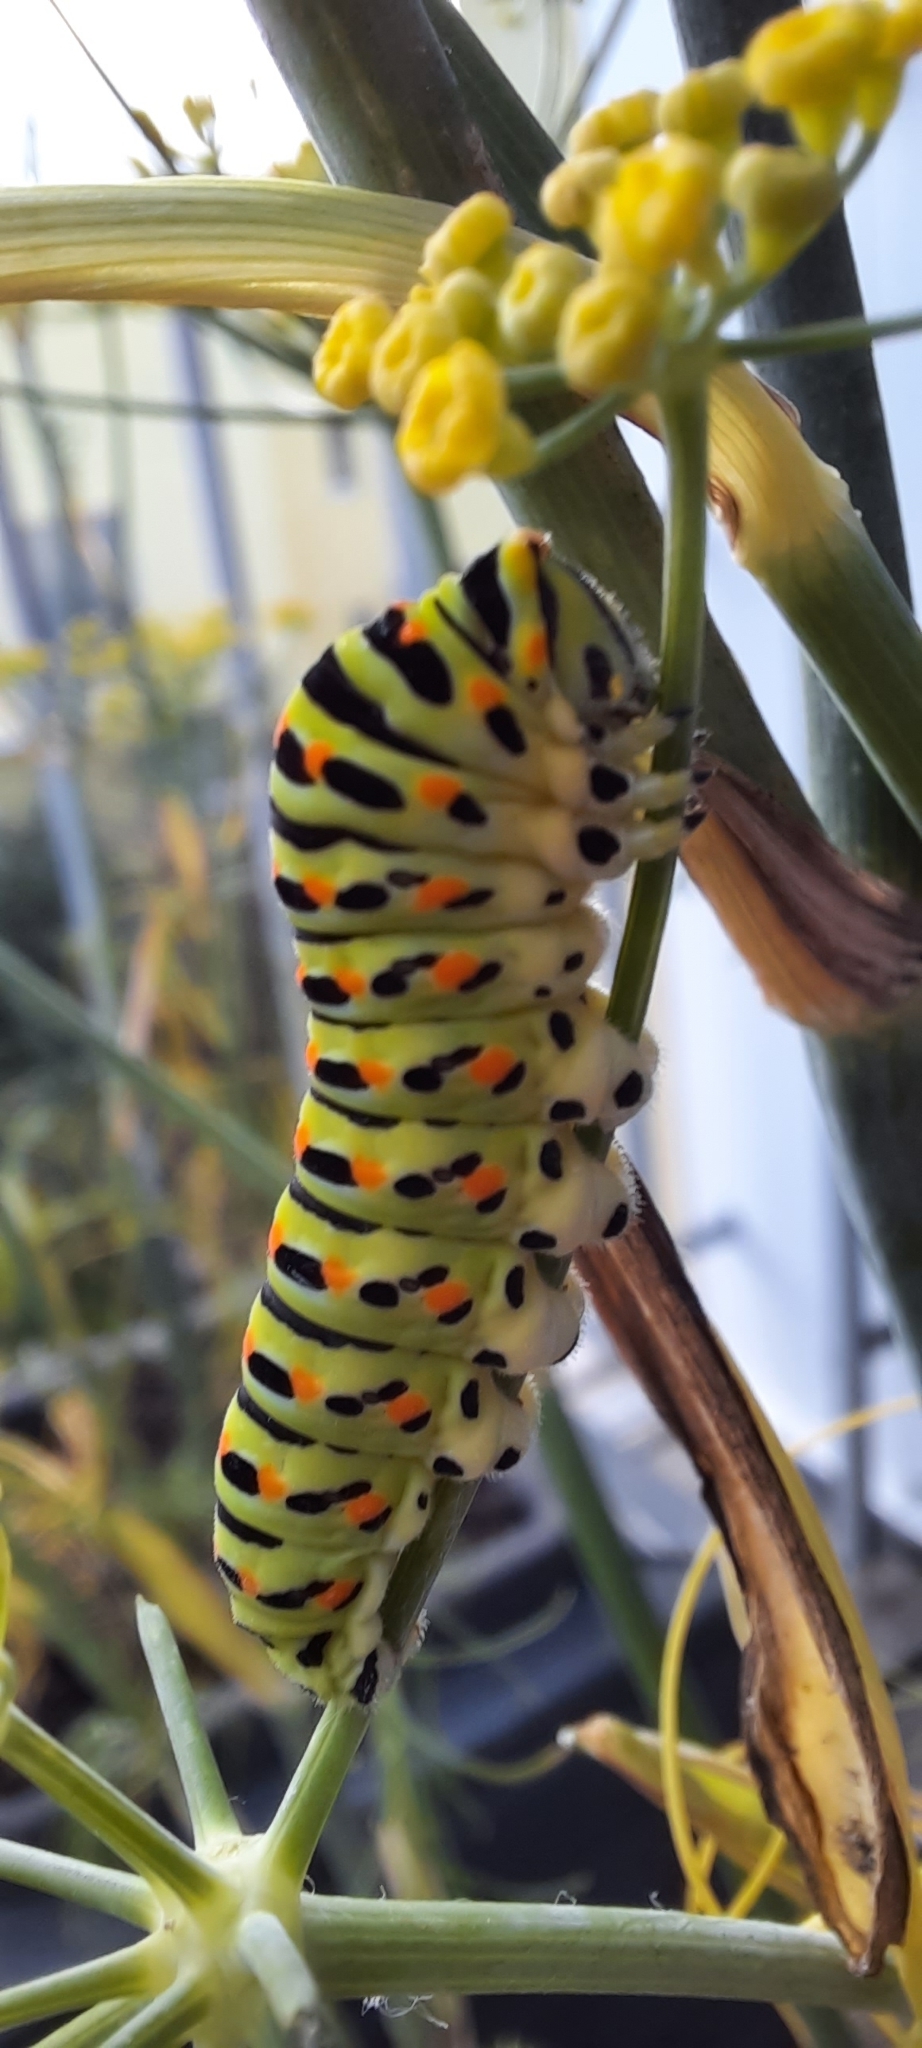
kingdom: Animalia
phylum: Arthropoda
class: Insecta
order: Lepidoptera
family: Papilionidae
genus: Papilio
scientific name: Papilio machaon
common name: Swallowtail
